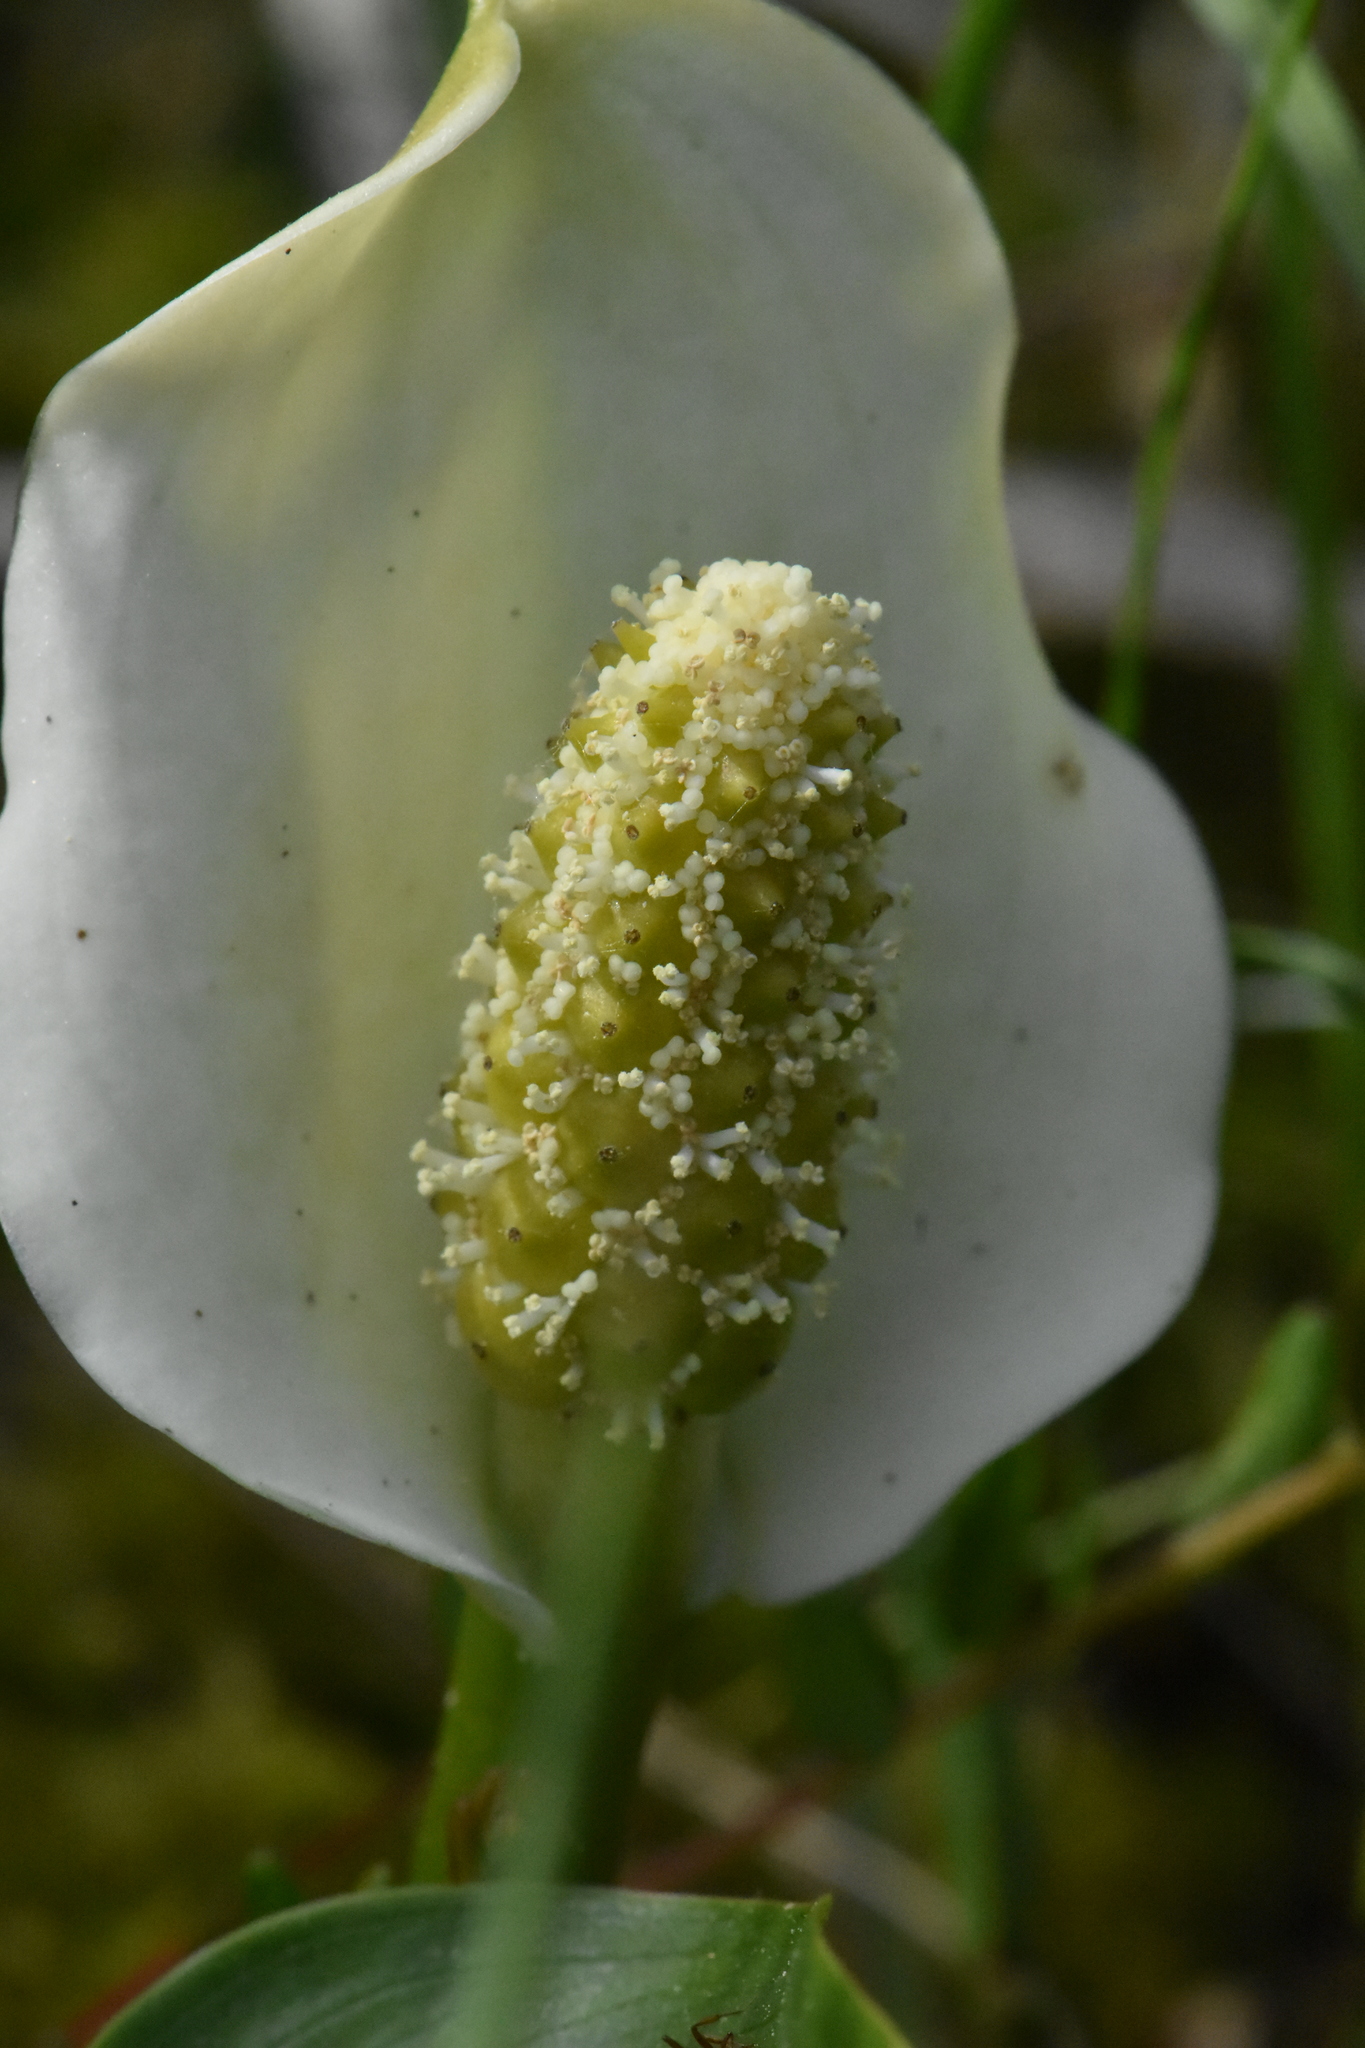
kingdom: Plantae
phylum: Tracheophyta
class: Liliopsida
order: Alismatales
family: Araceae
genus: Calla
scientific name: Calla palustris
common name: Bog arum
